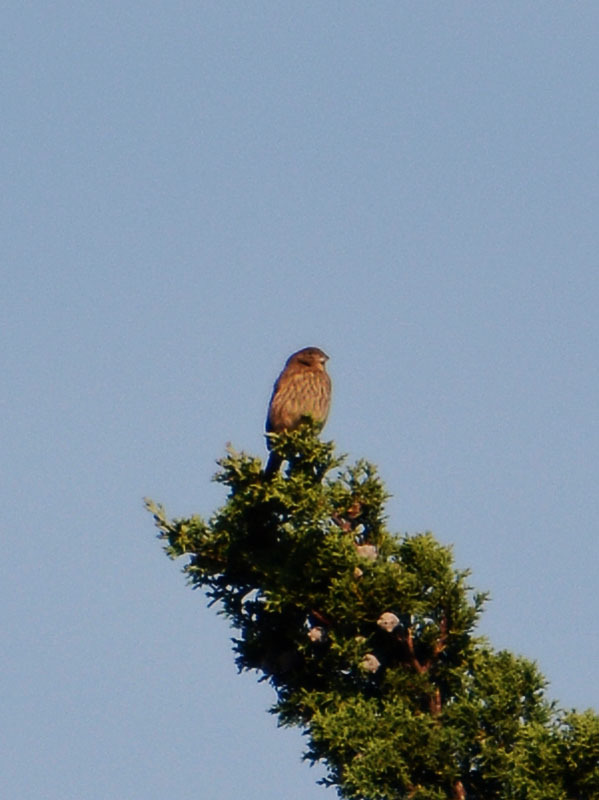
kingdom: Animalia
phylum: Chordata
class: Aves
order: Passeriformes
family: Fringillidae
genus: Haemorhous
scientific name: Haemorhous mexicanus
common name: House finch
